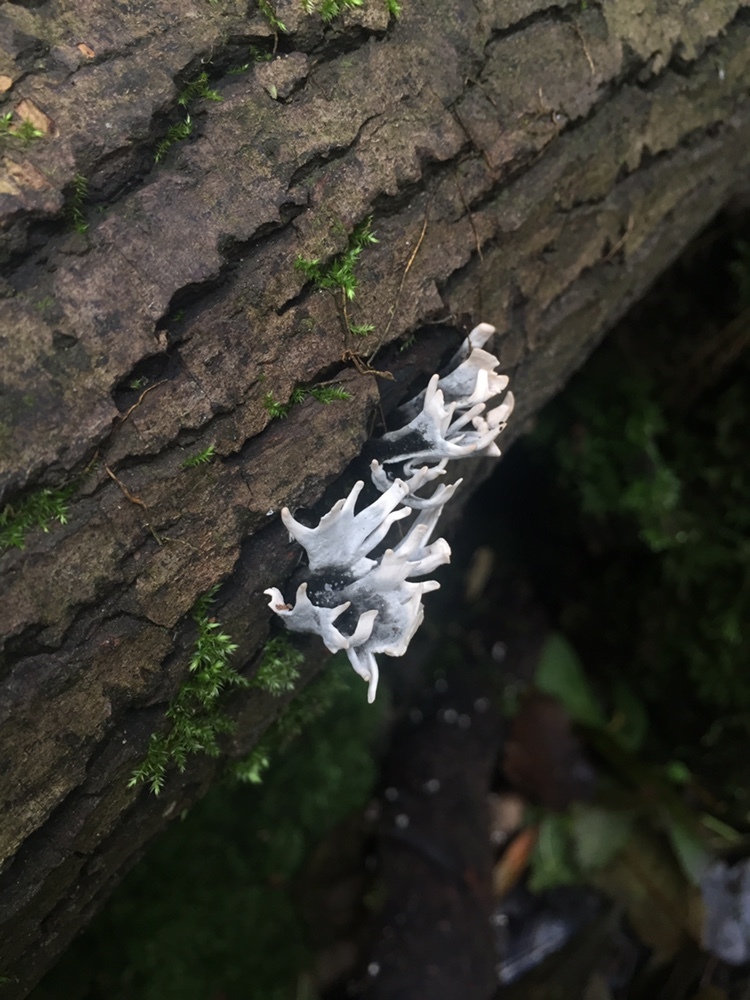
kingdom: Fungi
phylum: Ascomycota
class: Sordariomycetes
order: Xylariales
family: Xylariaceae
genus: Xylaria
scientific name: Xylaria hypoxylon
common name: Candle-snuff fungus
